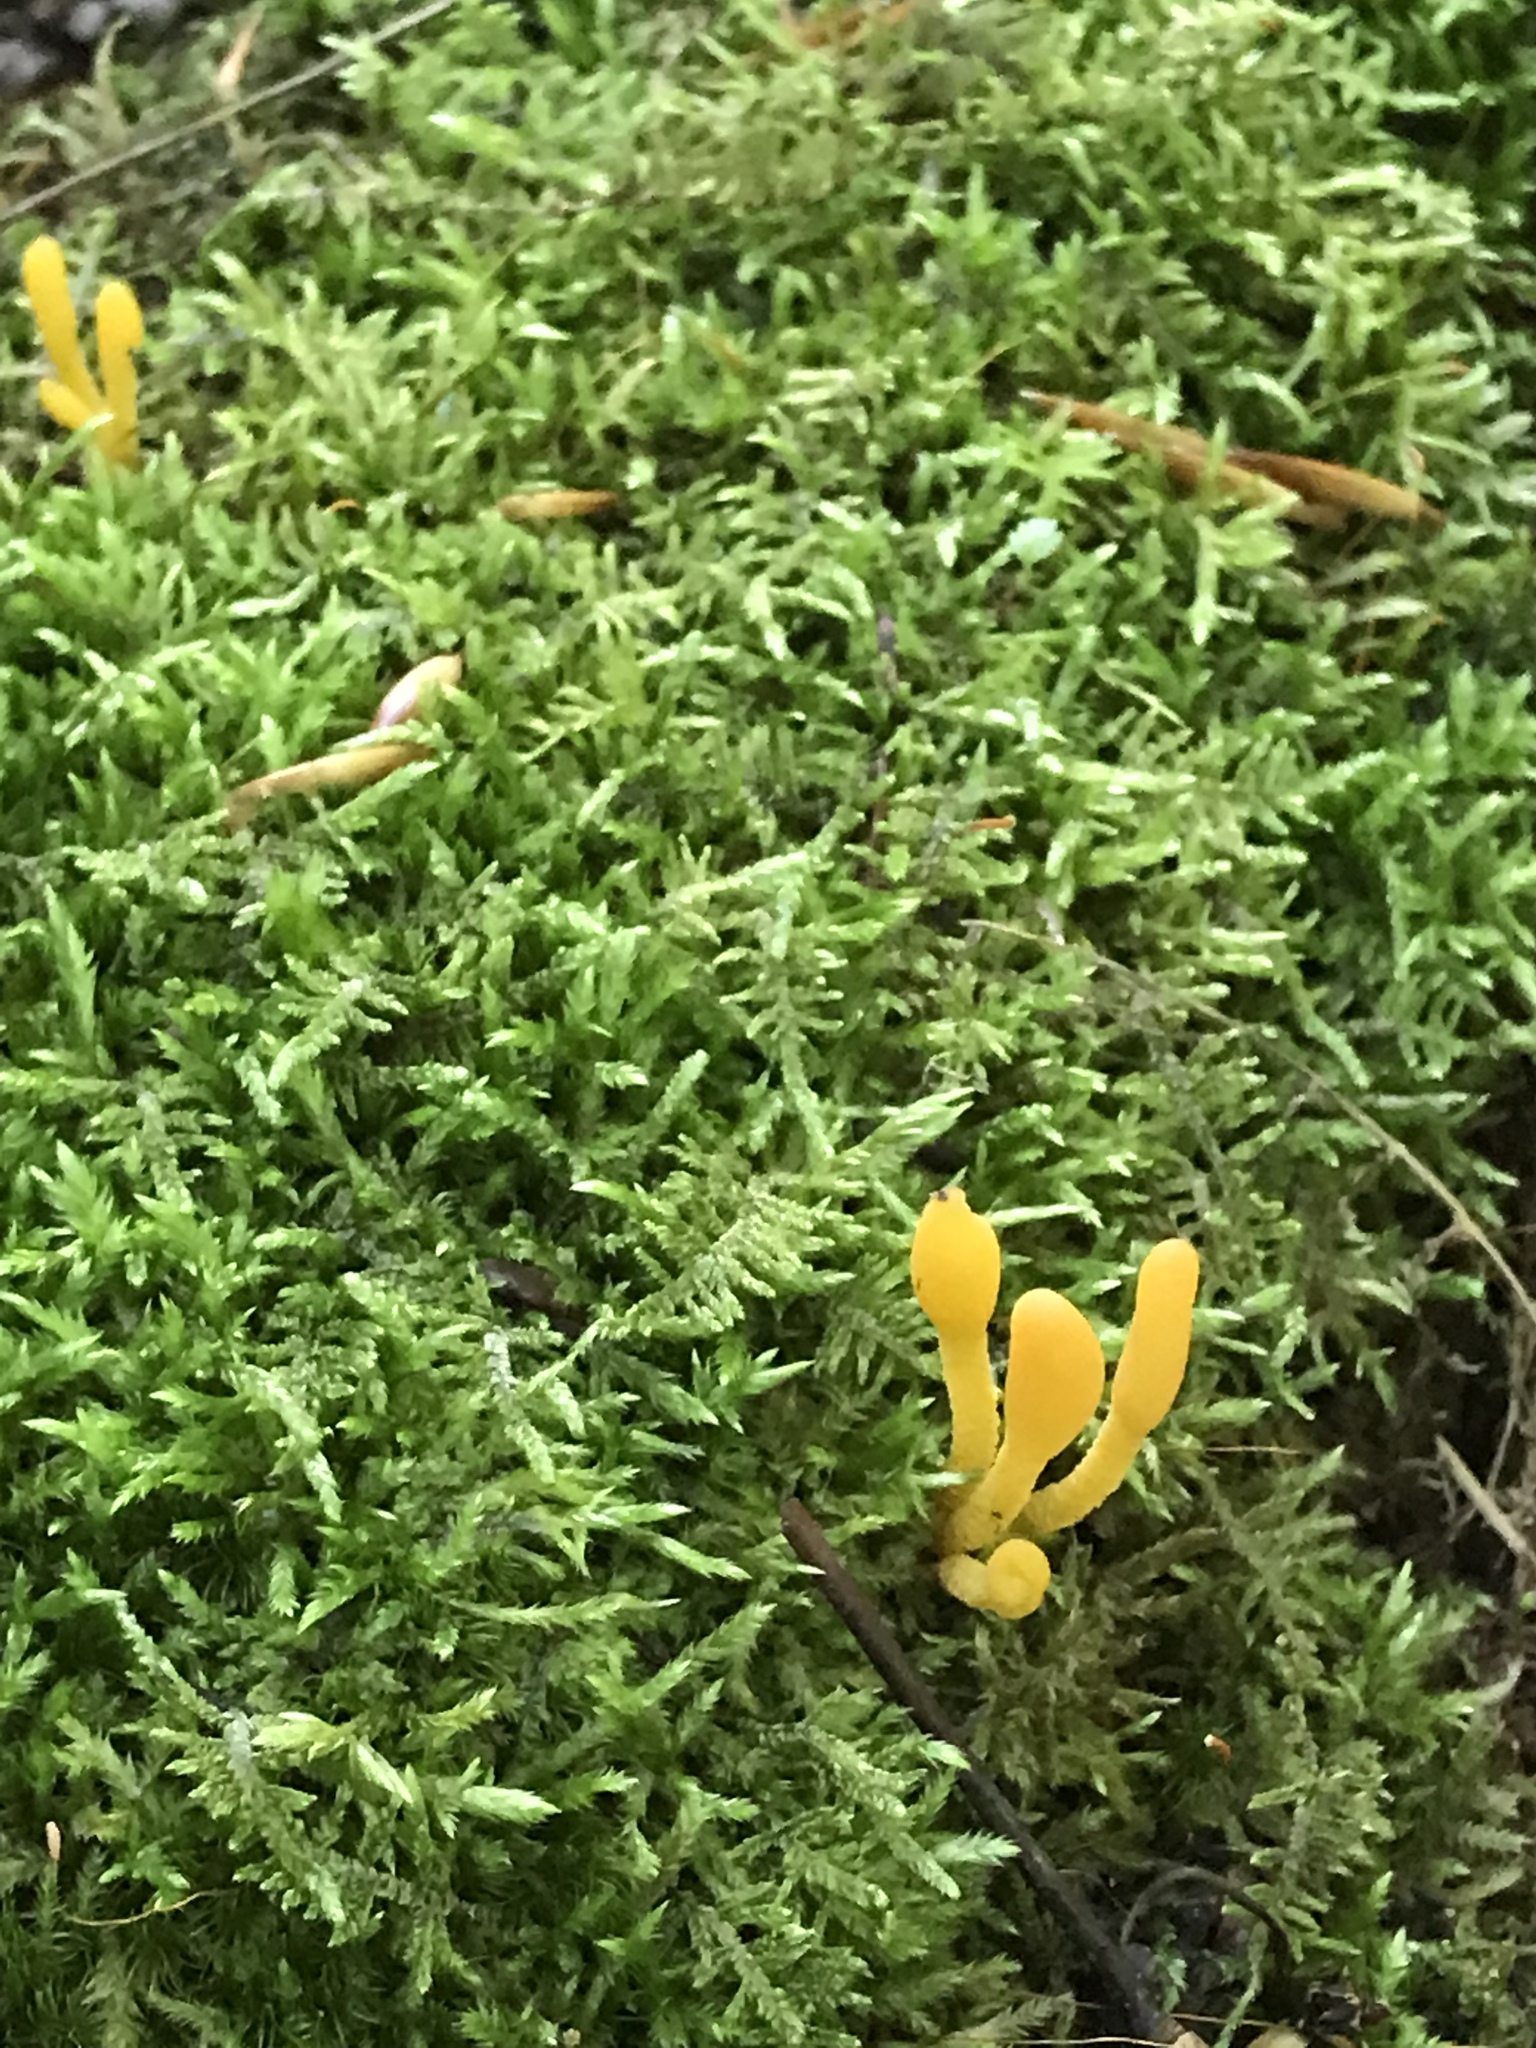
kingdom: Fungi
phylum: Ascomycota
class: Leotiomycetes
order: Leotiales
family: Leotiaceae
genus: Microglossum
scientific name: Microglossum rufum
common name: Orange earthtongue
